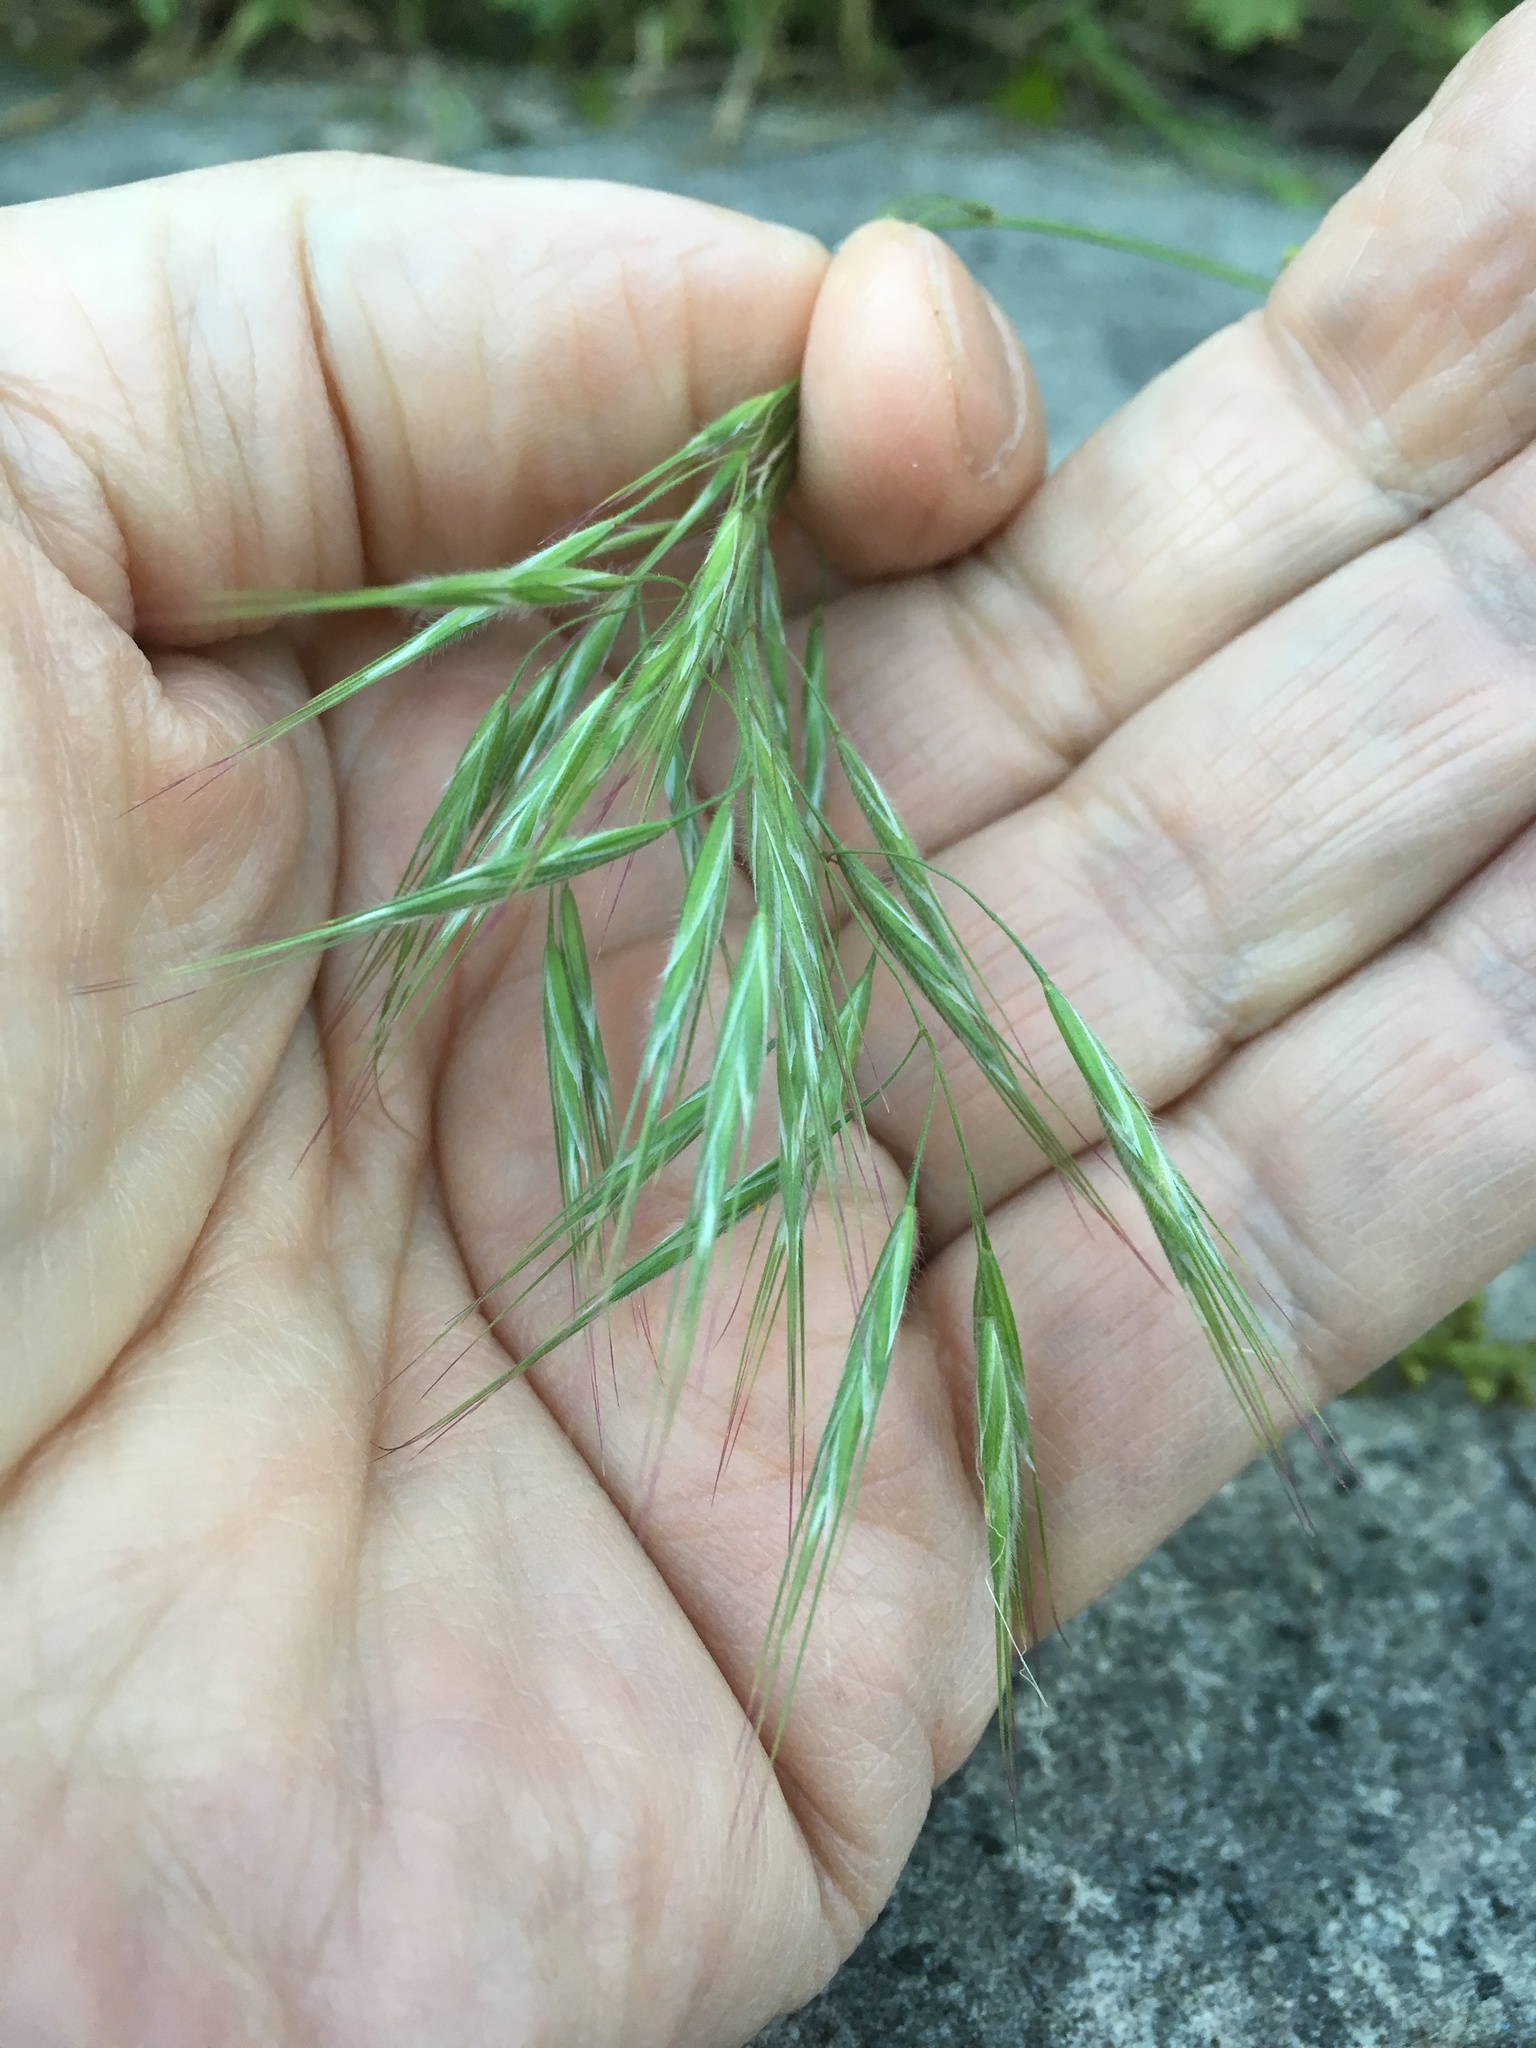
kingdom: Plantae
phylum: Tracheophyta
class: Liliopsida
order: Poales
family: Poaceae
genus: Bromus
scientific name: Bromus tectorum
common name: Cheatgrass
